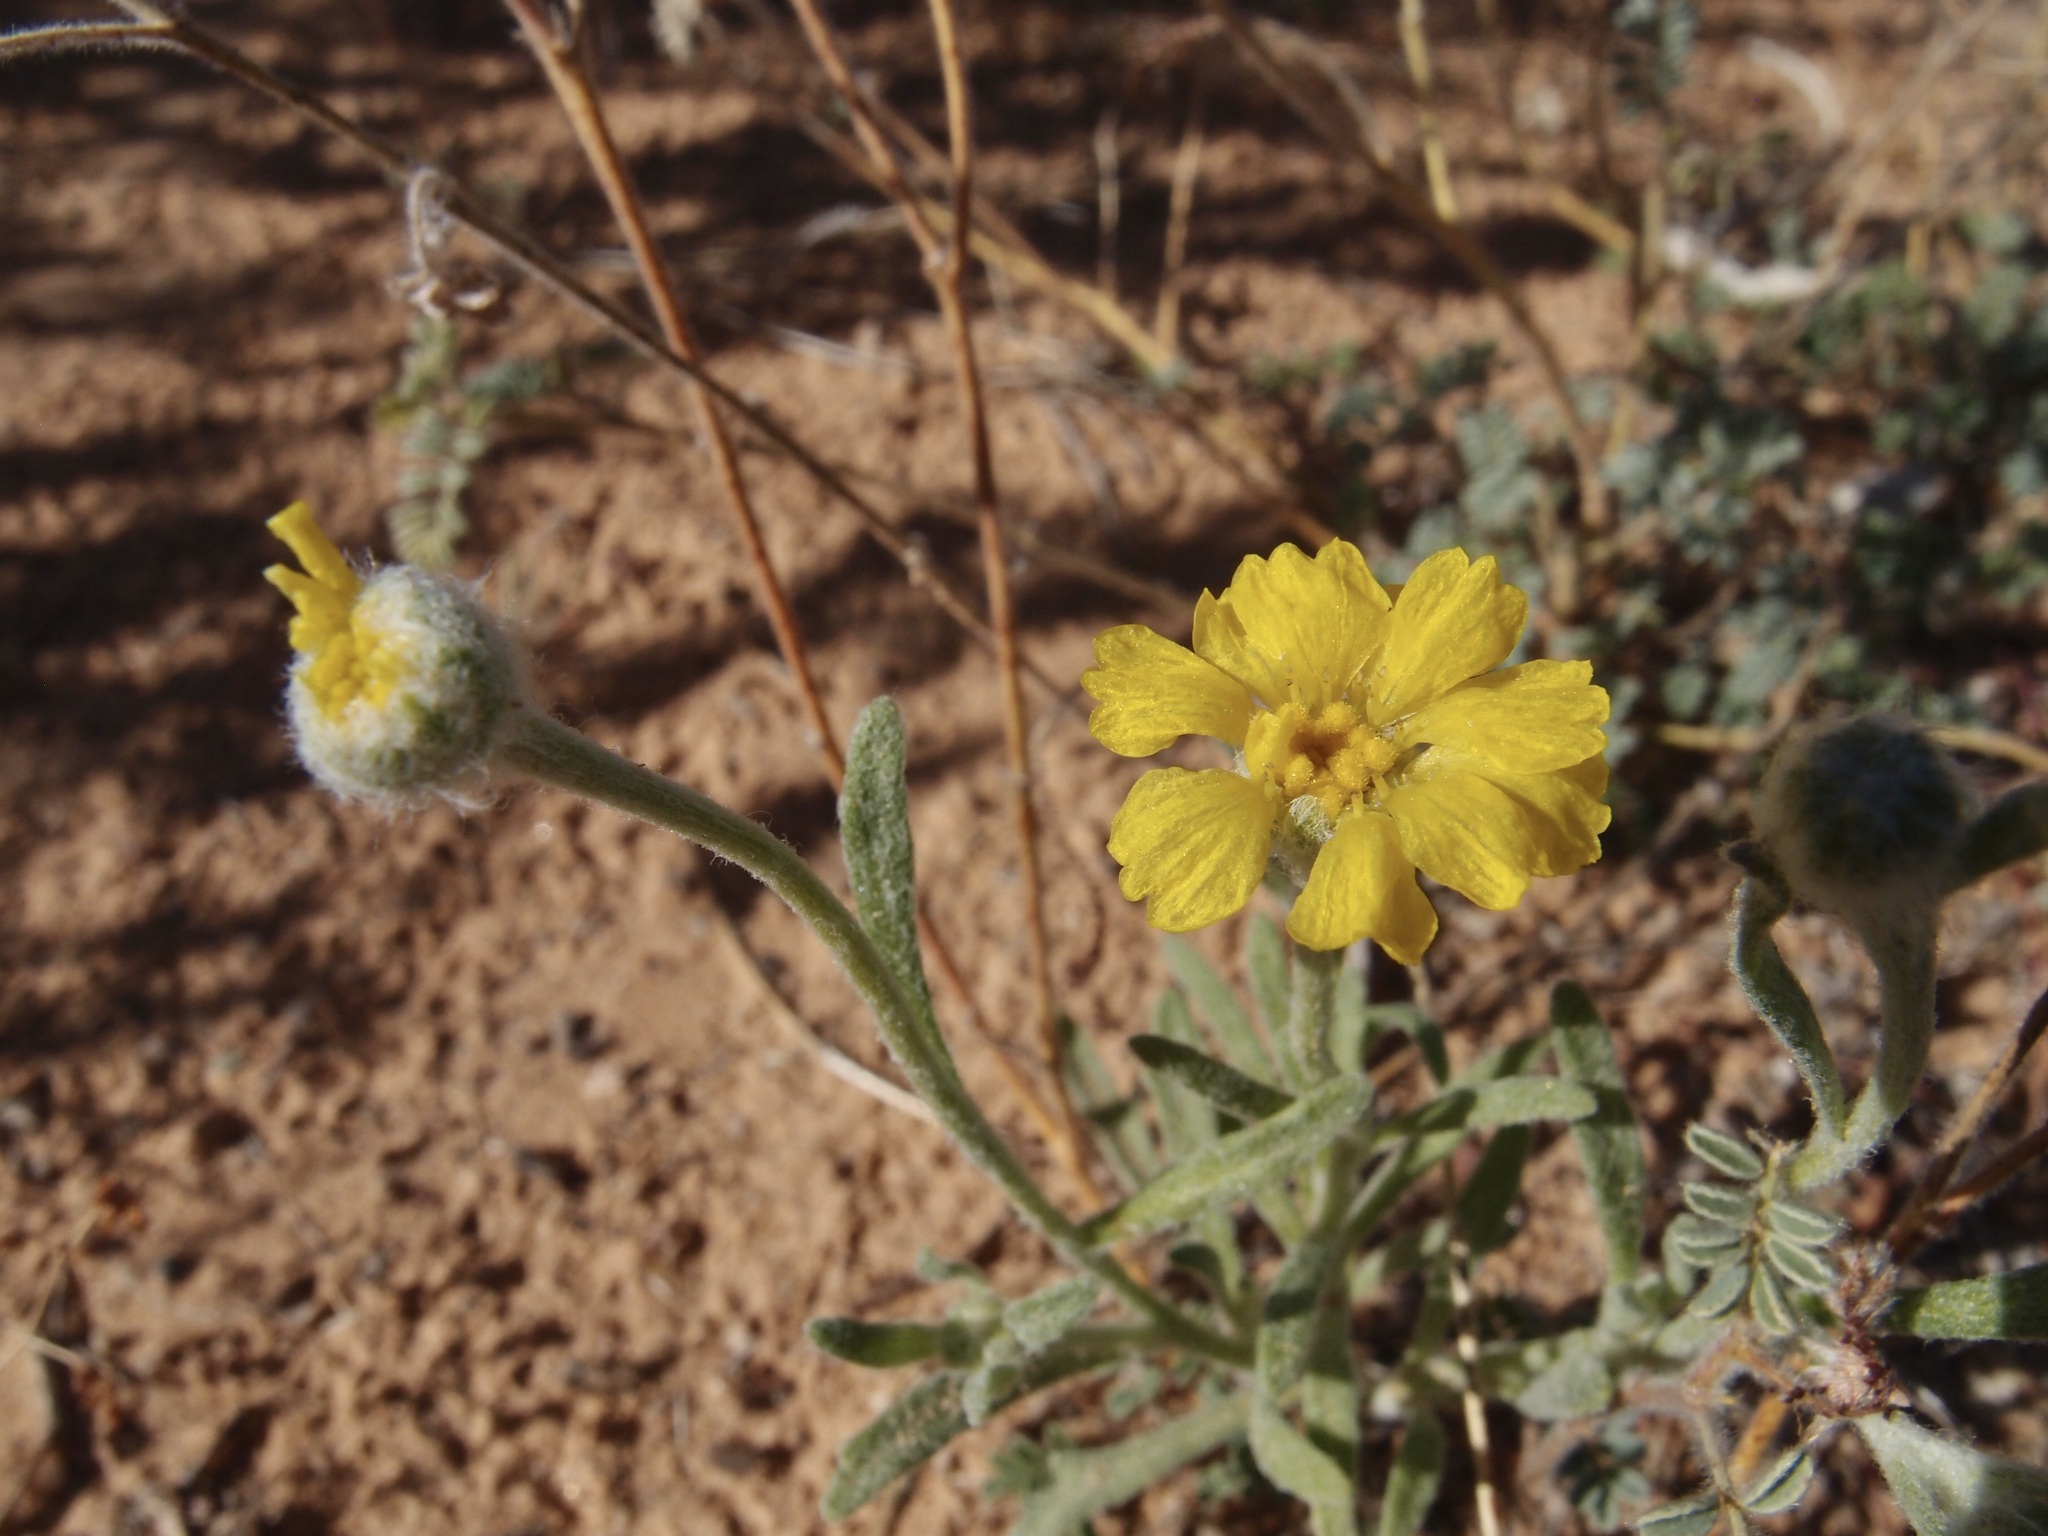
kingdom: Plantae
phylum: Tracheophyta
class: Magnoliopsida
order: Asterales
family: Asteraceae
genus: Baileya
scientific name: Baileya pleniradiata
